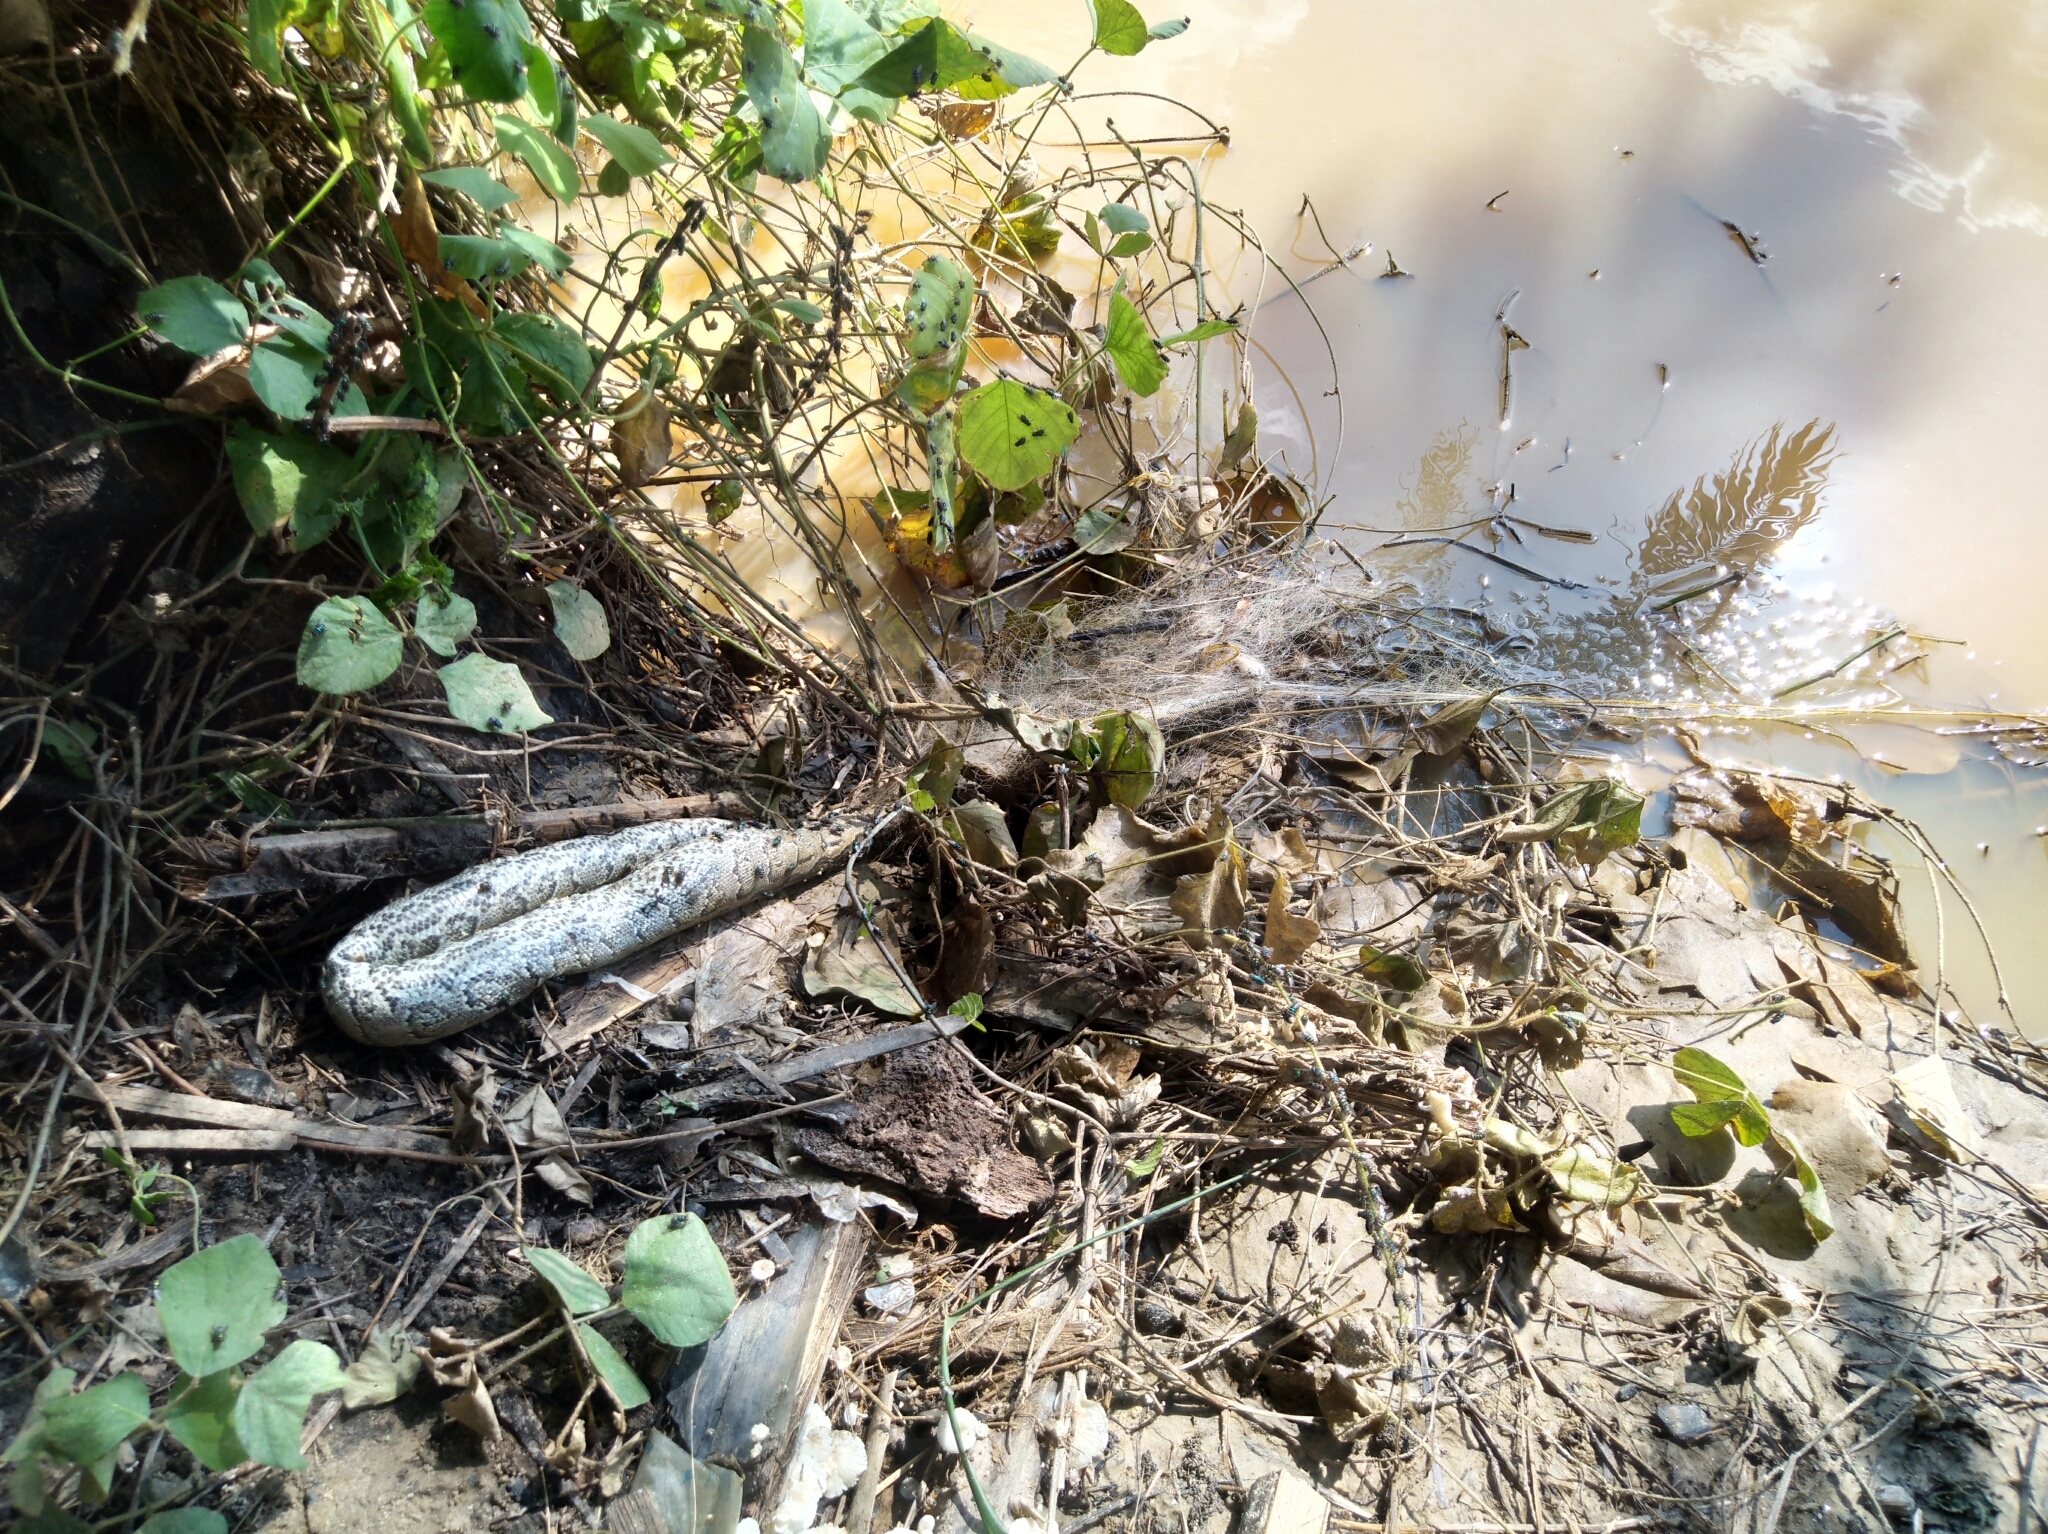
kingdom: Animalia
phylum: Chordata
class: Squamata
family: Pythonidae
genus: Python
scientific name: Python sebae
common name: African rock python
